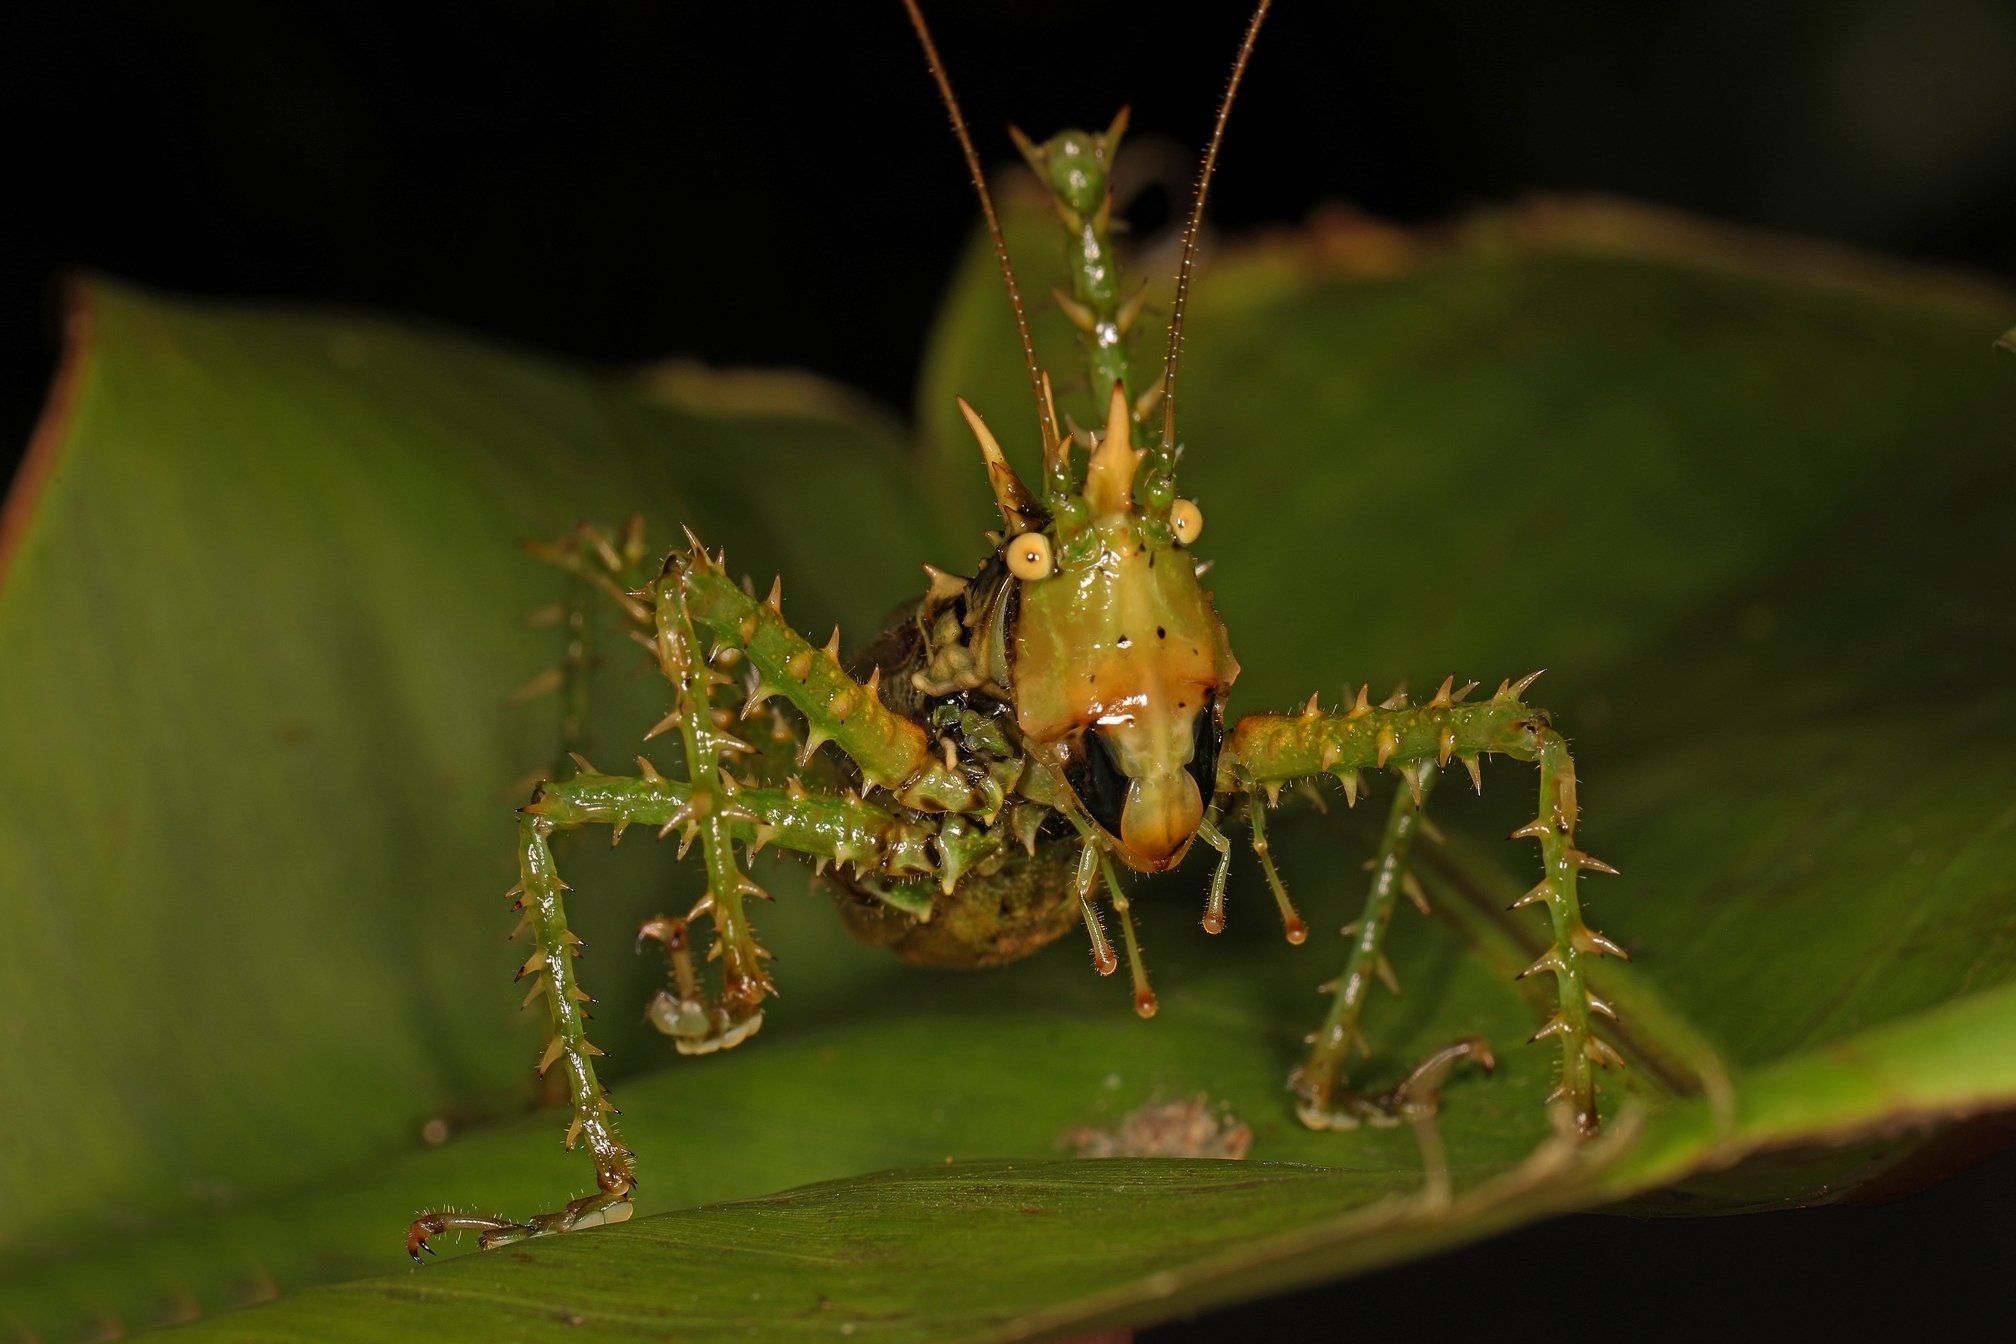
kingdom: Animalia
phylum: Arthropoda
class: Insecta
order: Orthoptera
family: Tettigoniidae
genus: Panacanthus
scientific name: Panacanthus lacrimans
